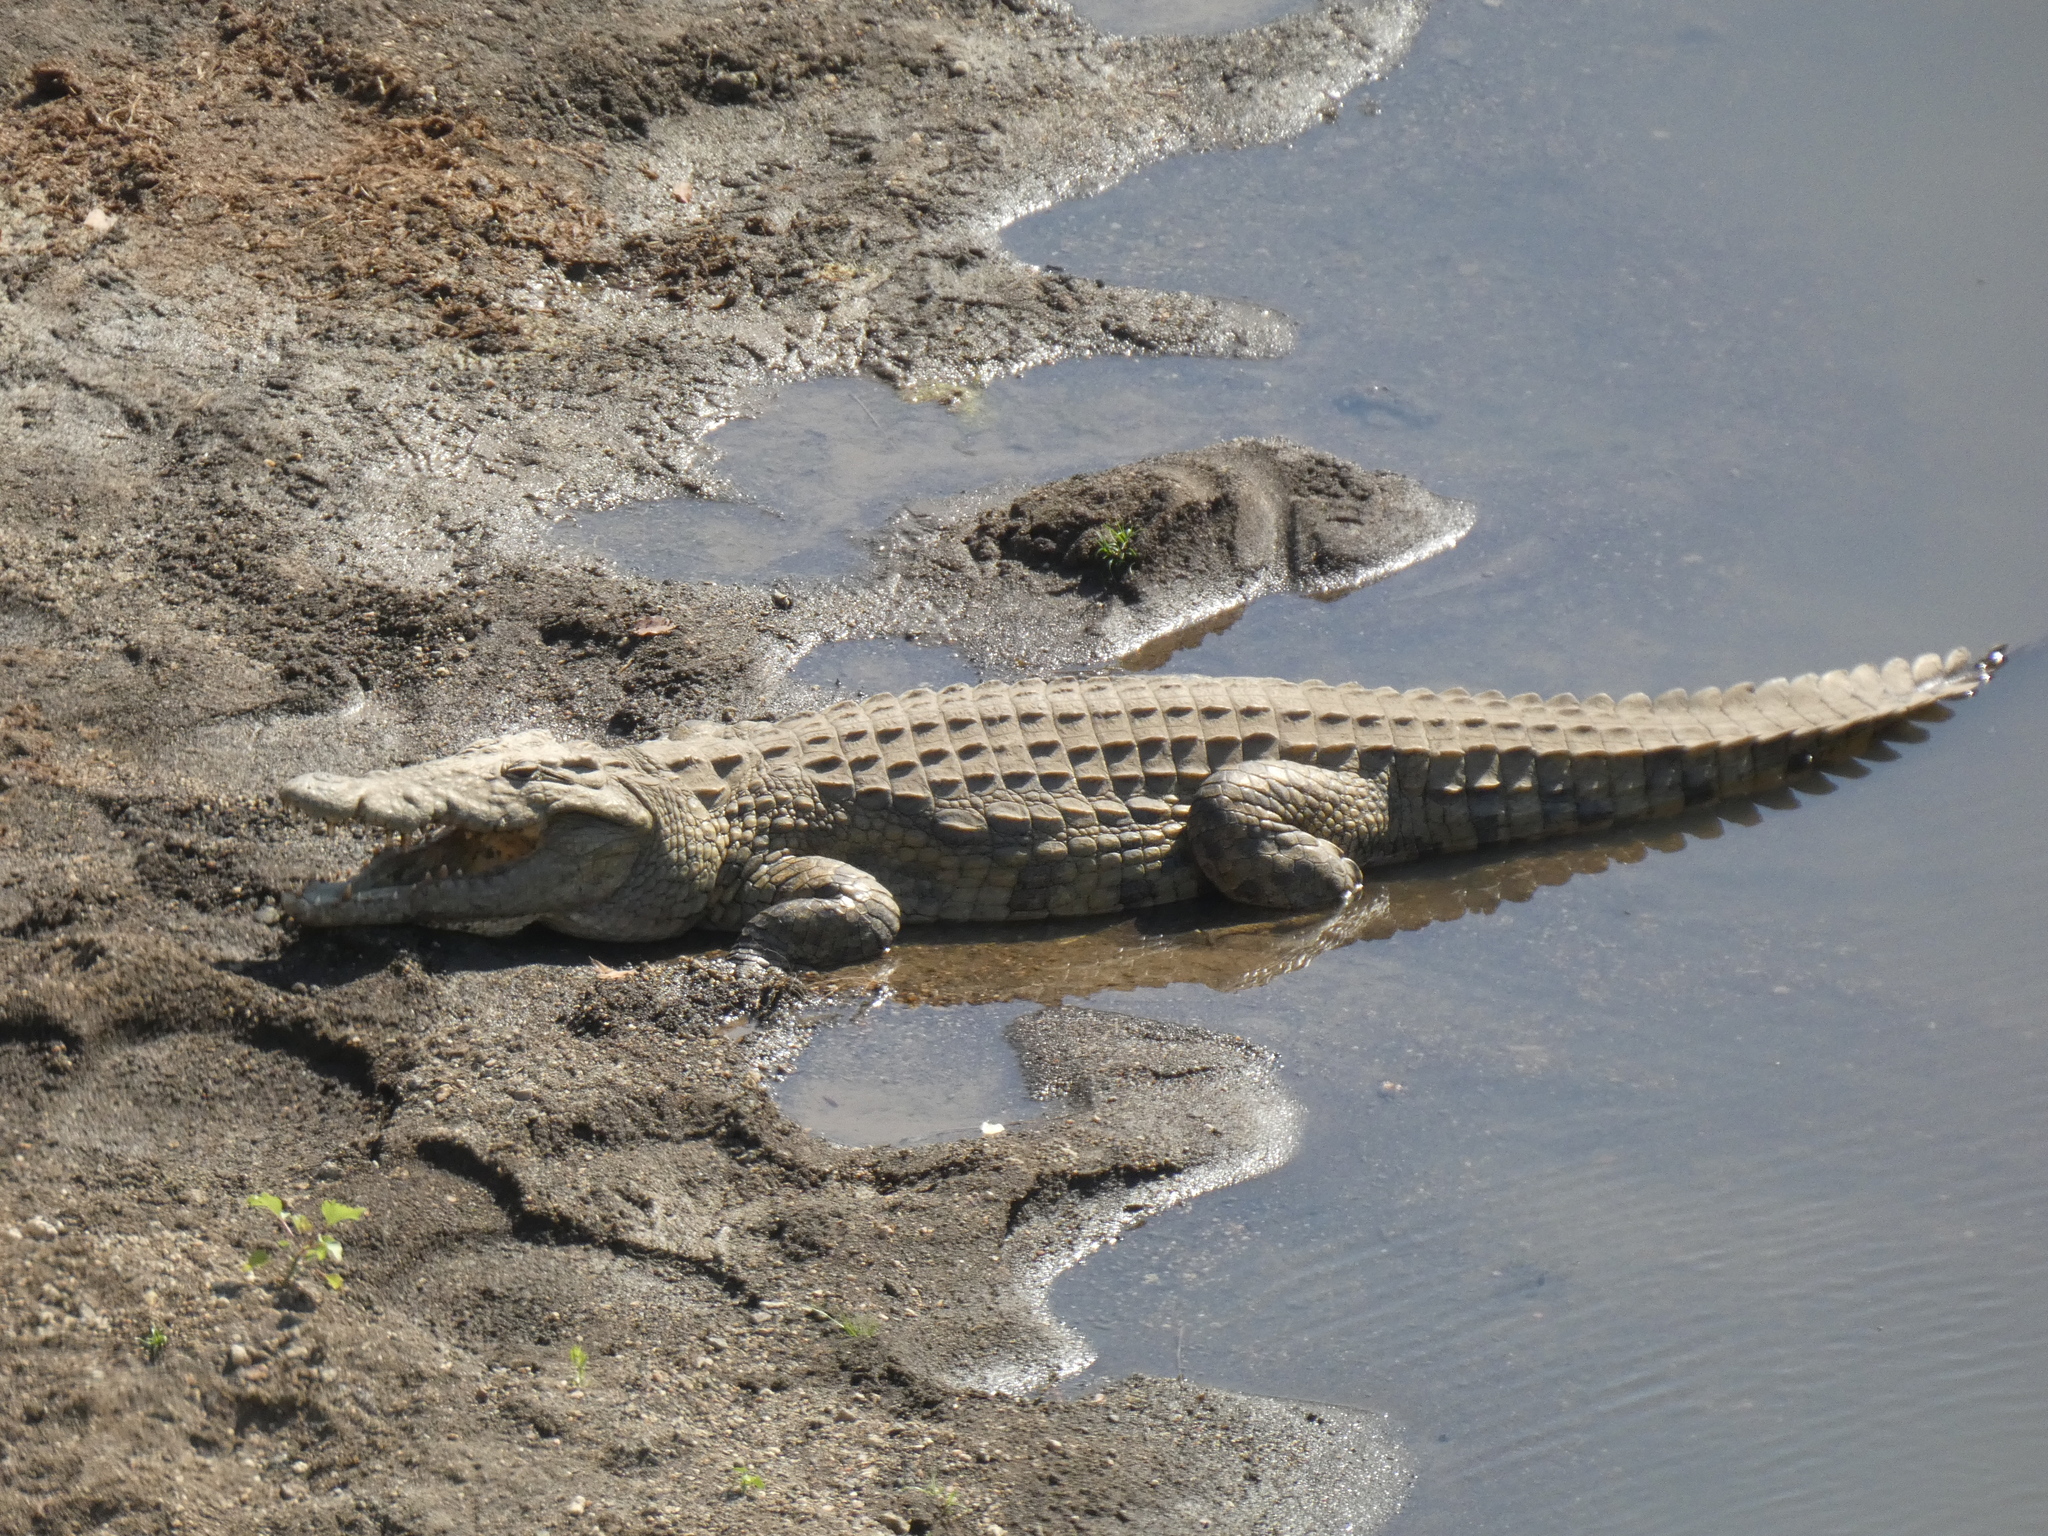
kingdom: Animalia
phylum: Chordata
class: Crocodylia
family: Crocodylidae
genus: Crocodylus
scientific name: Crocodylus niloticus
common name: Nile crocodile
